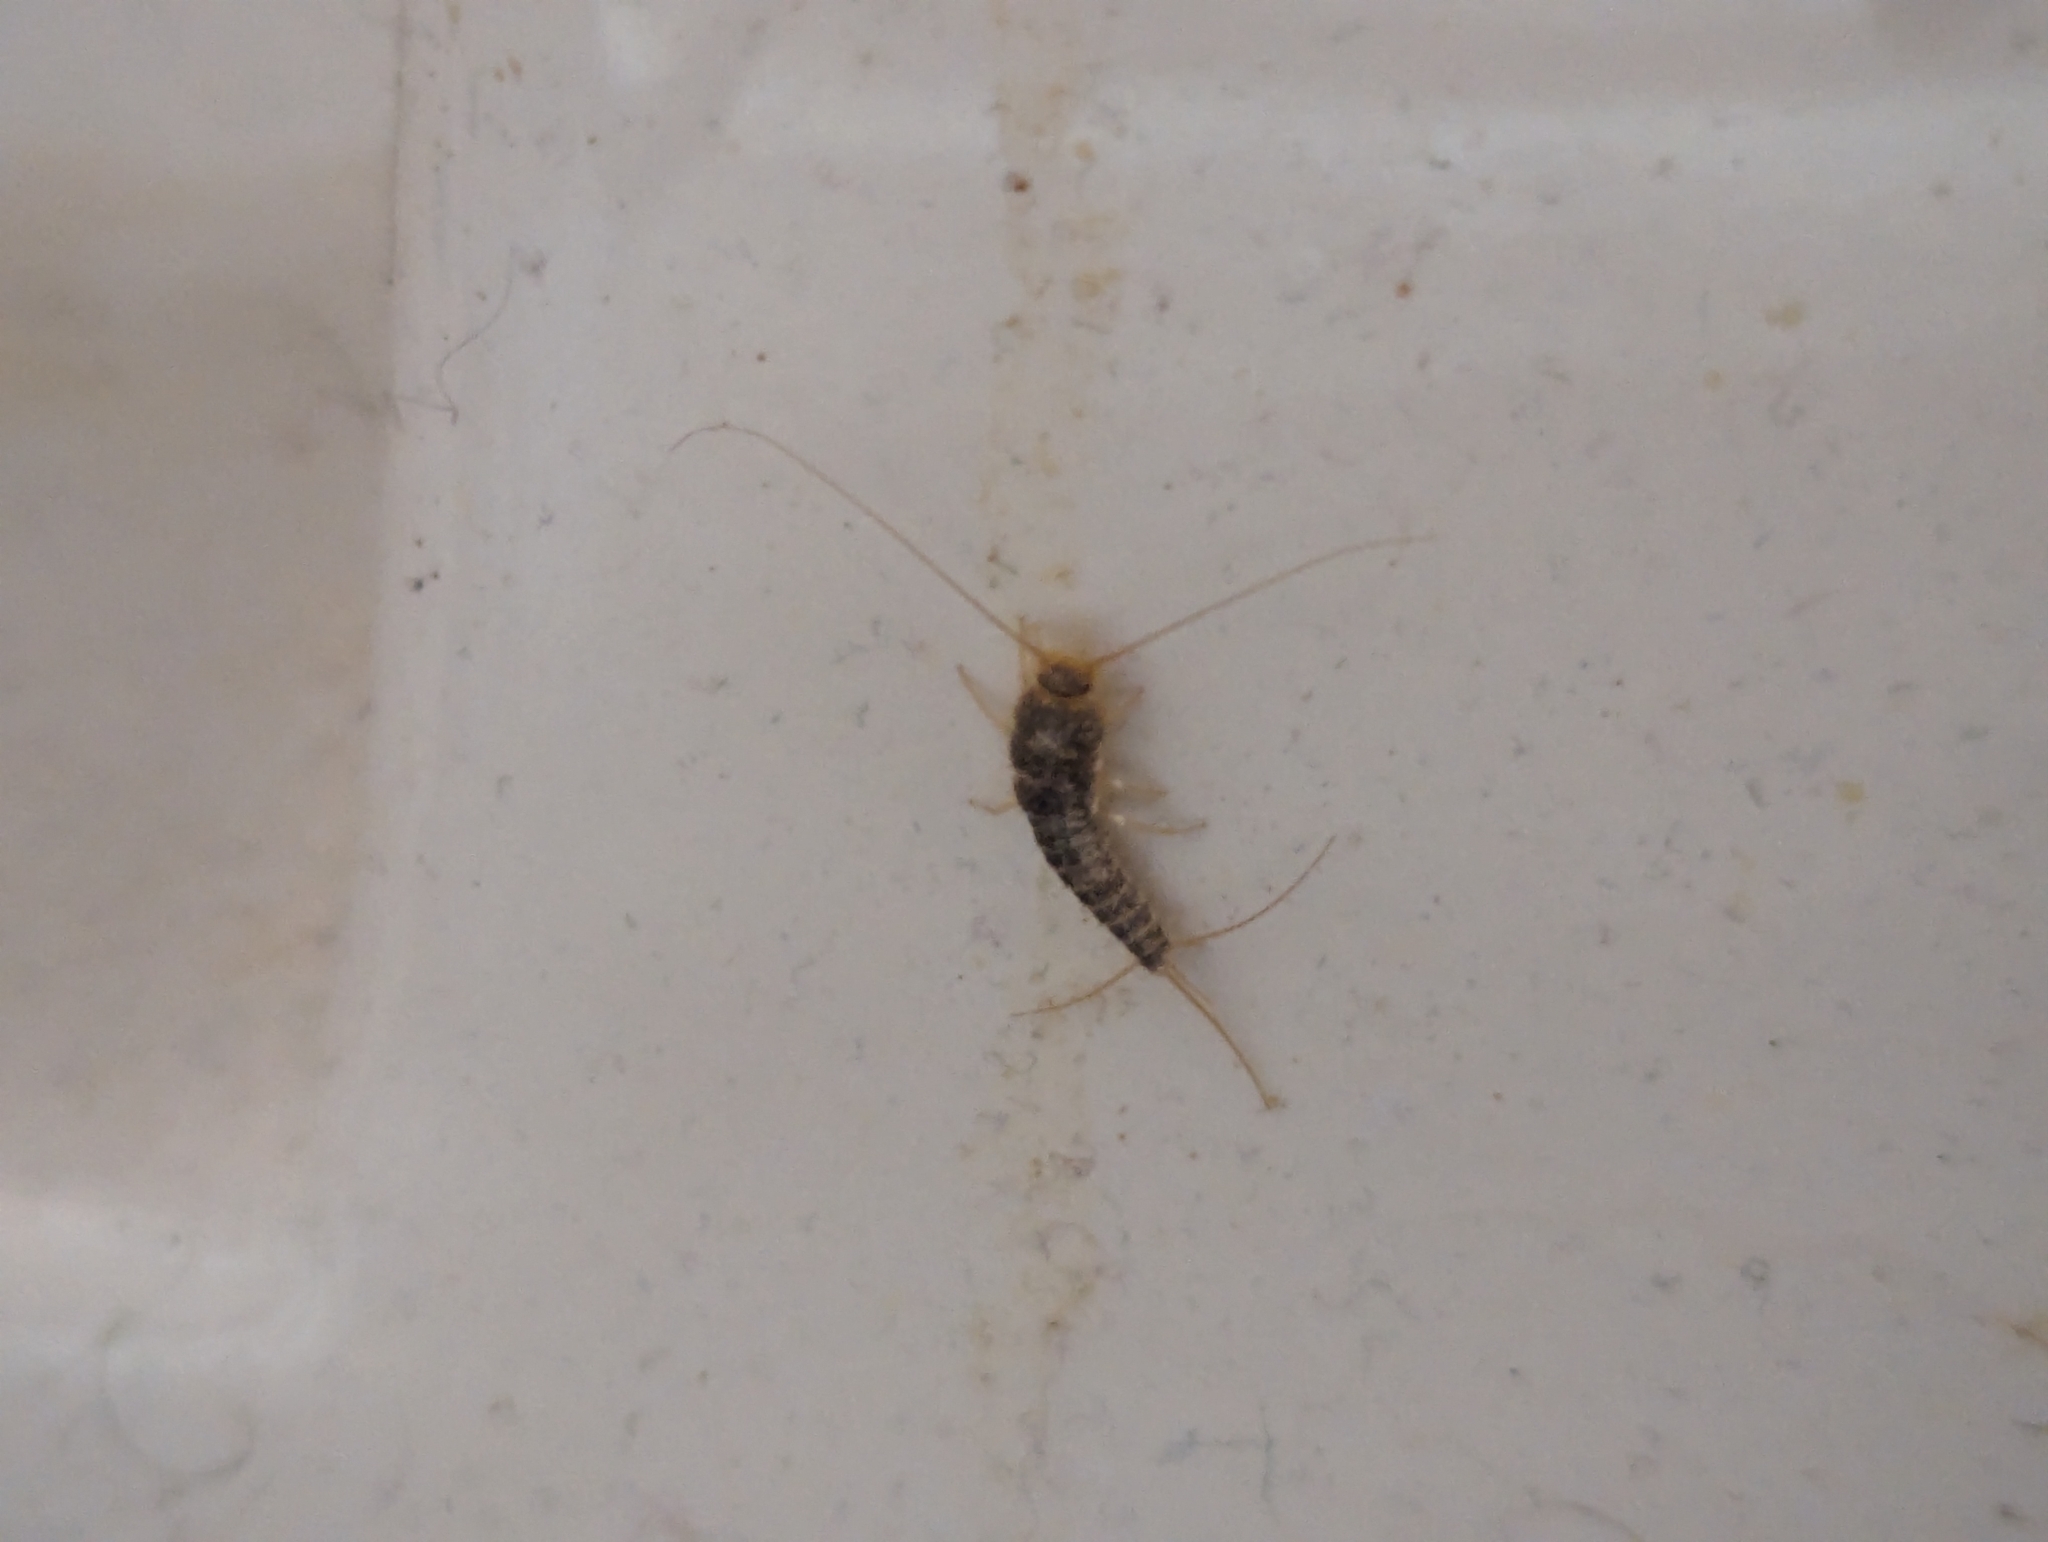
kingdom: Animalia
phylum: Arthropoda
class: Insecta
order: Zygentoma
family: Lepismatidae
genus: Ctenolepisma
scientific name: Ctenolepisma longicaudatum
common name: Silverfish
